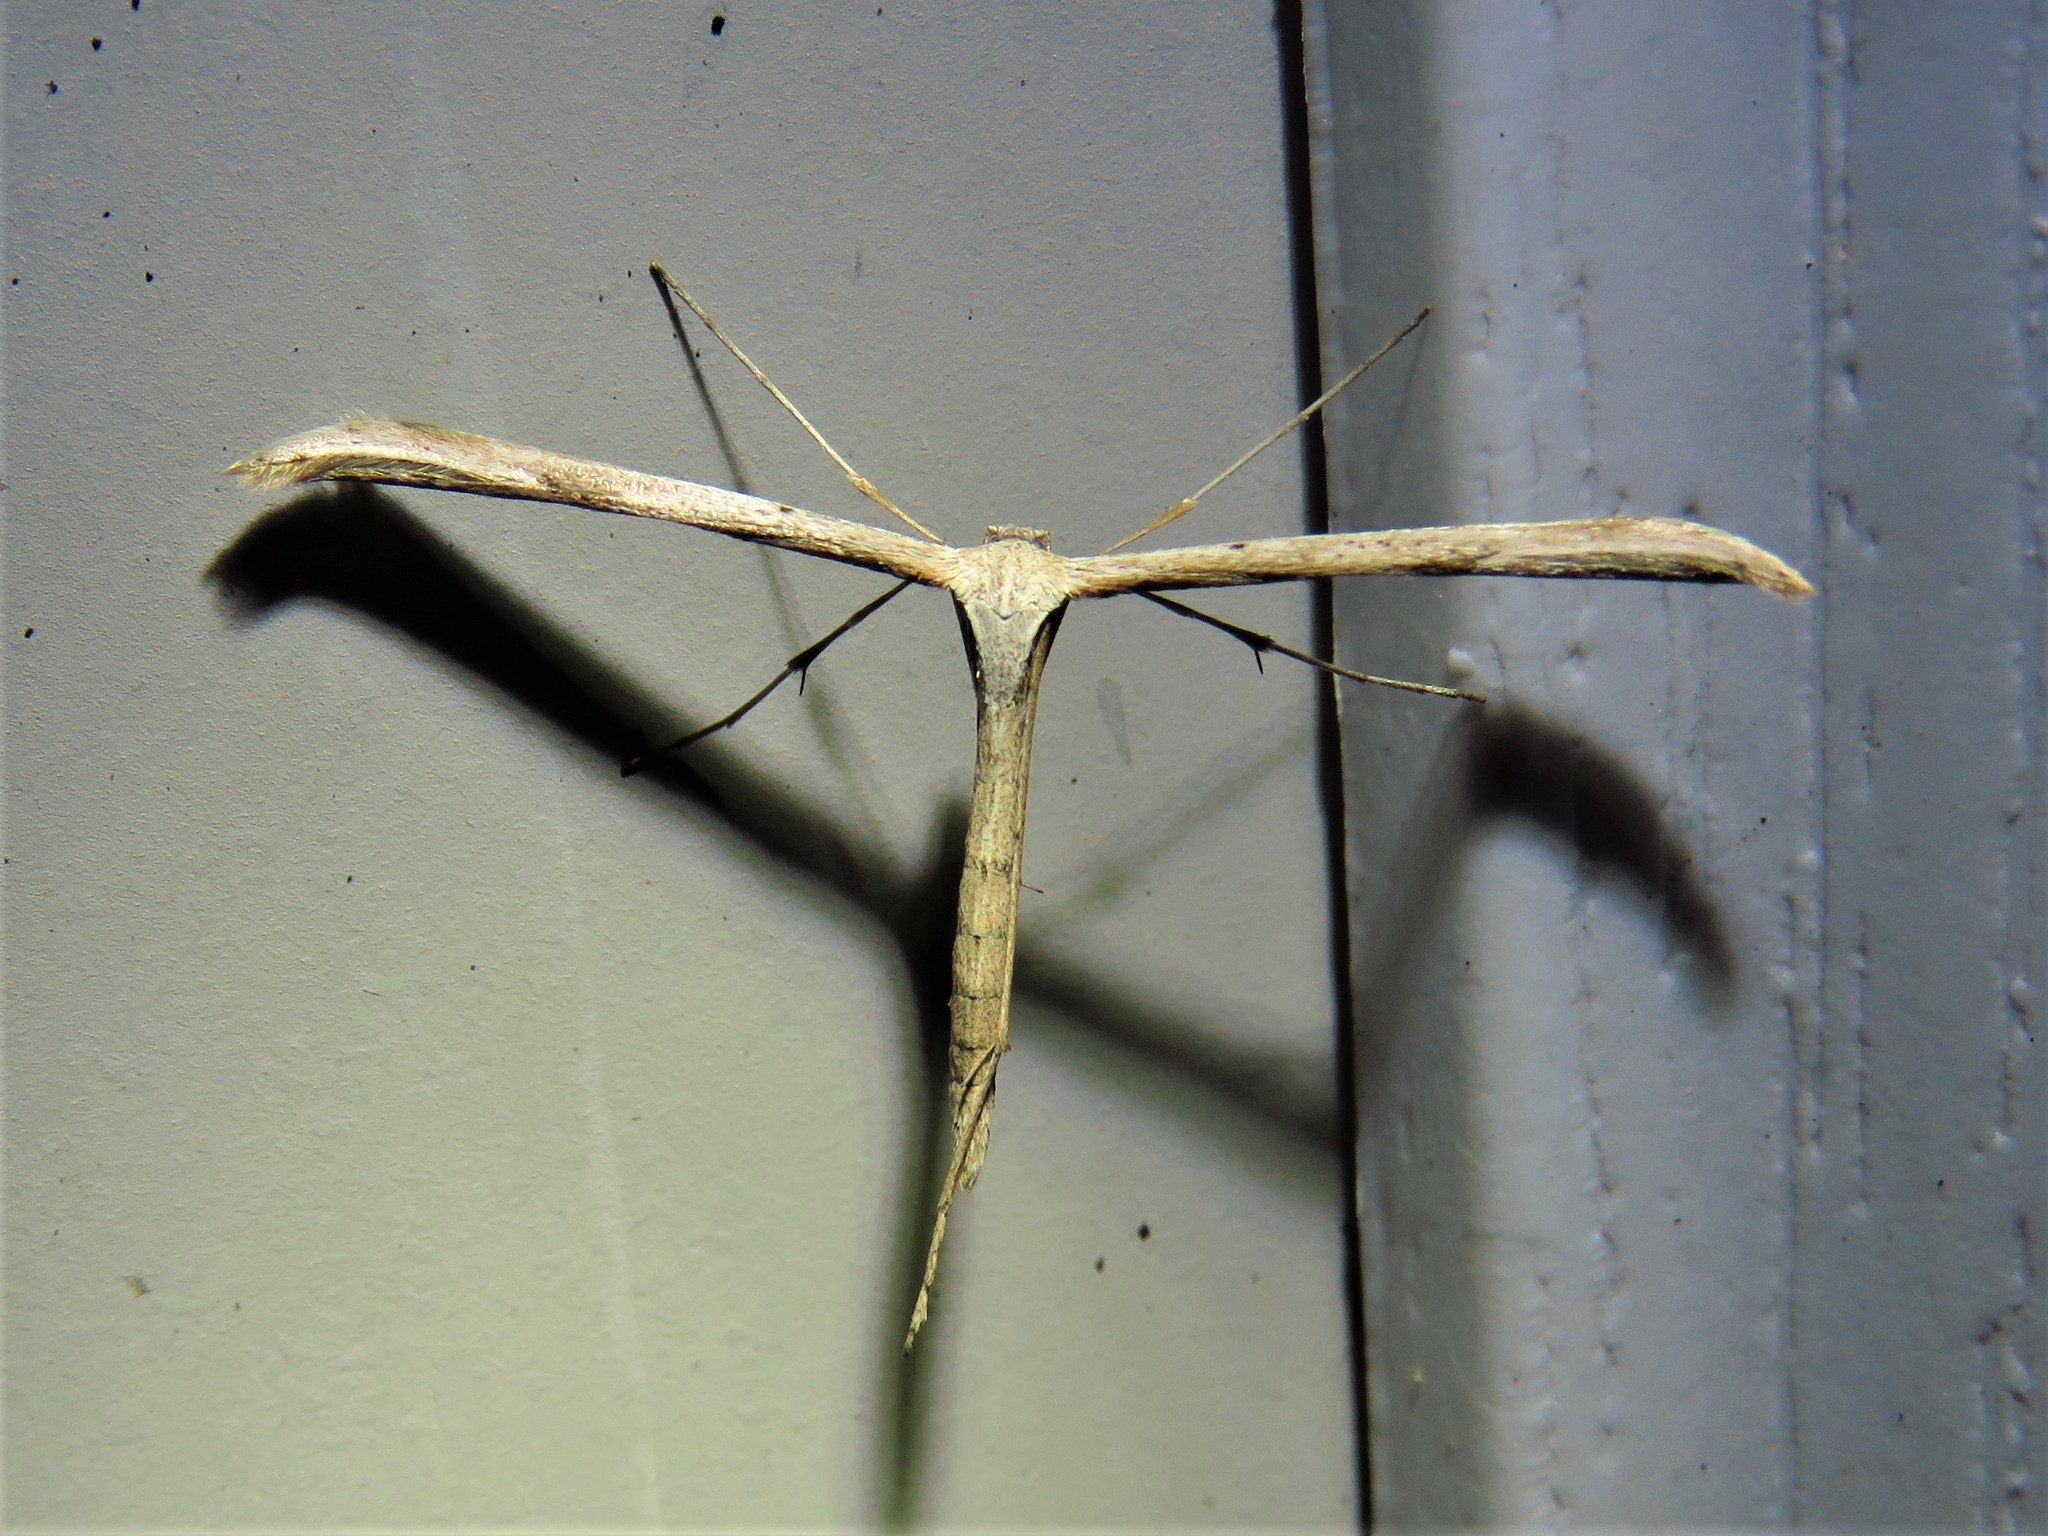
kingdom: Animalia
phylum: Arthropoda
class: Insecta
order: Lepidoptera
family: Pterophoridae
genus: Emmelina
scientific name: Emmelina monodactyla
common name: Common plume
